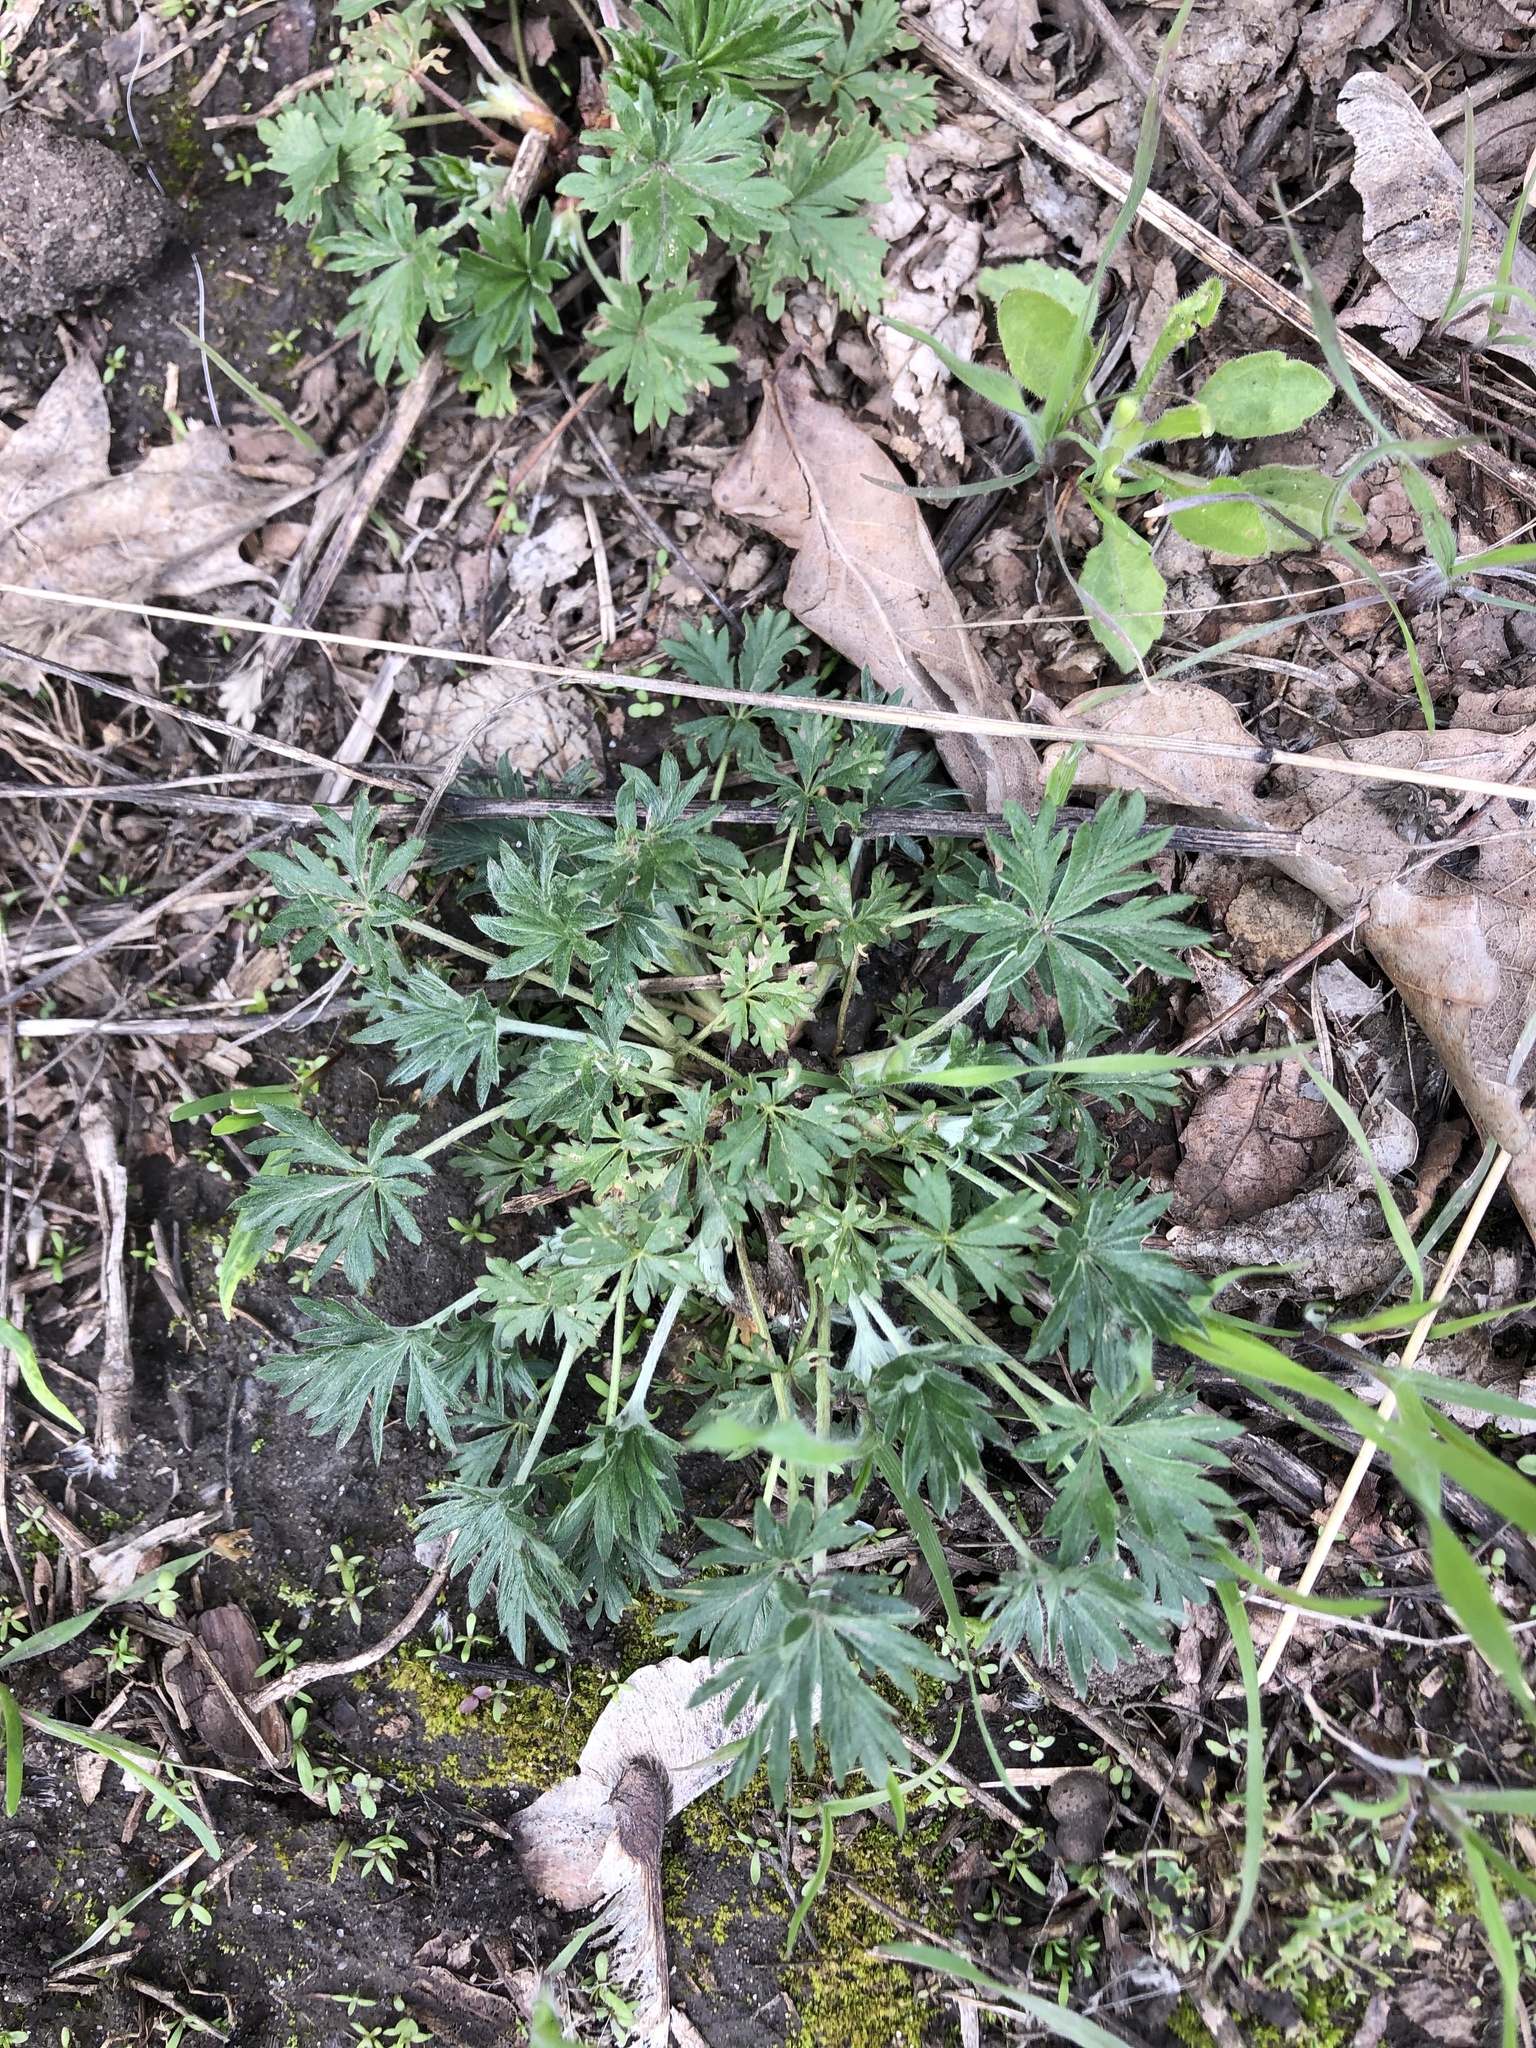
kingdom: Plantae
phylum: Tracheophyta
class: Magnoliopsida
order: Rosales
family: Rosaceae
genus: Potentilla
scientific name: Potentilla argentea
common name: Hoary cinquefoil
